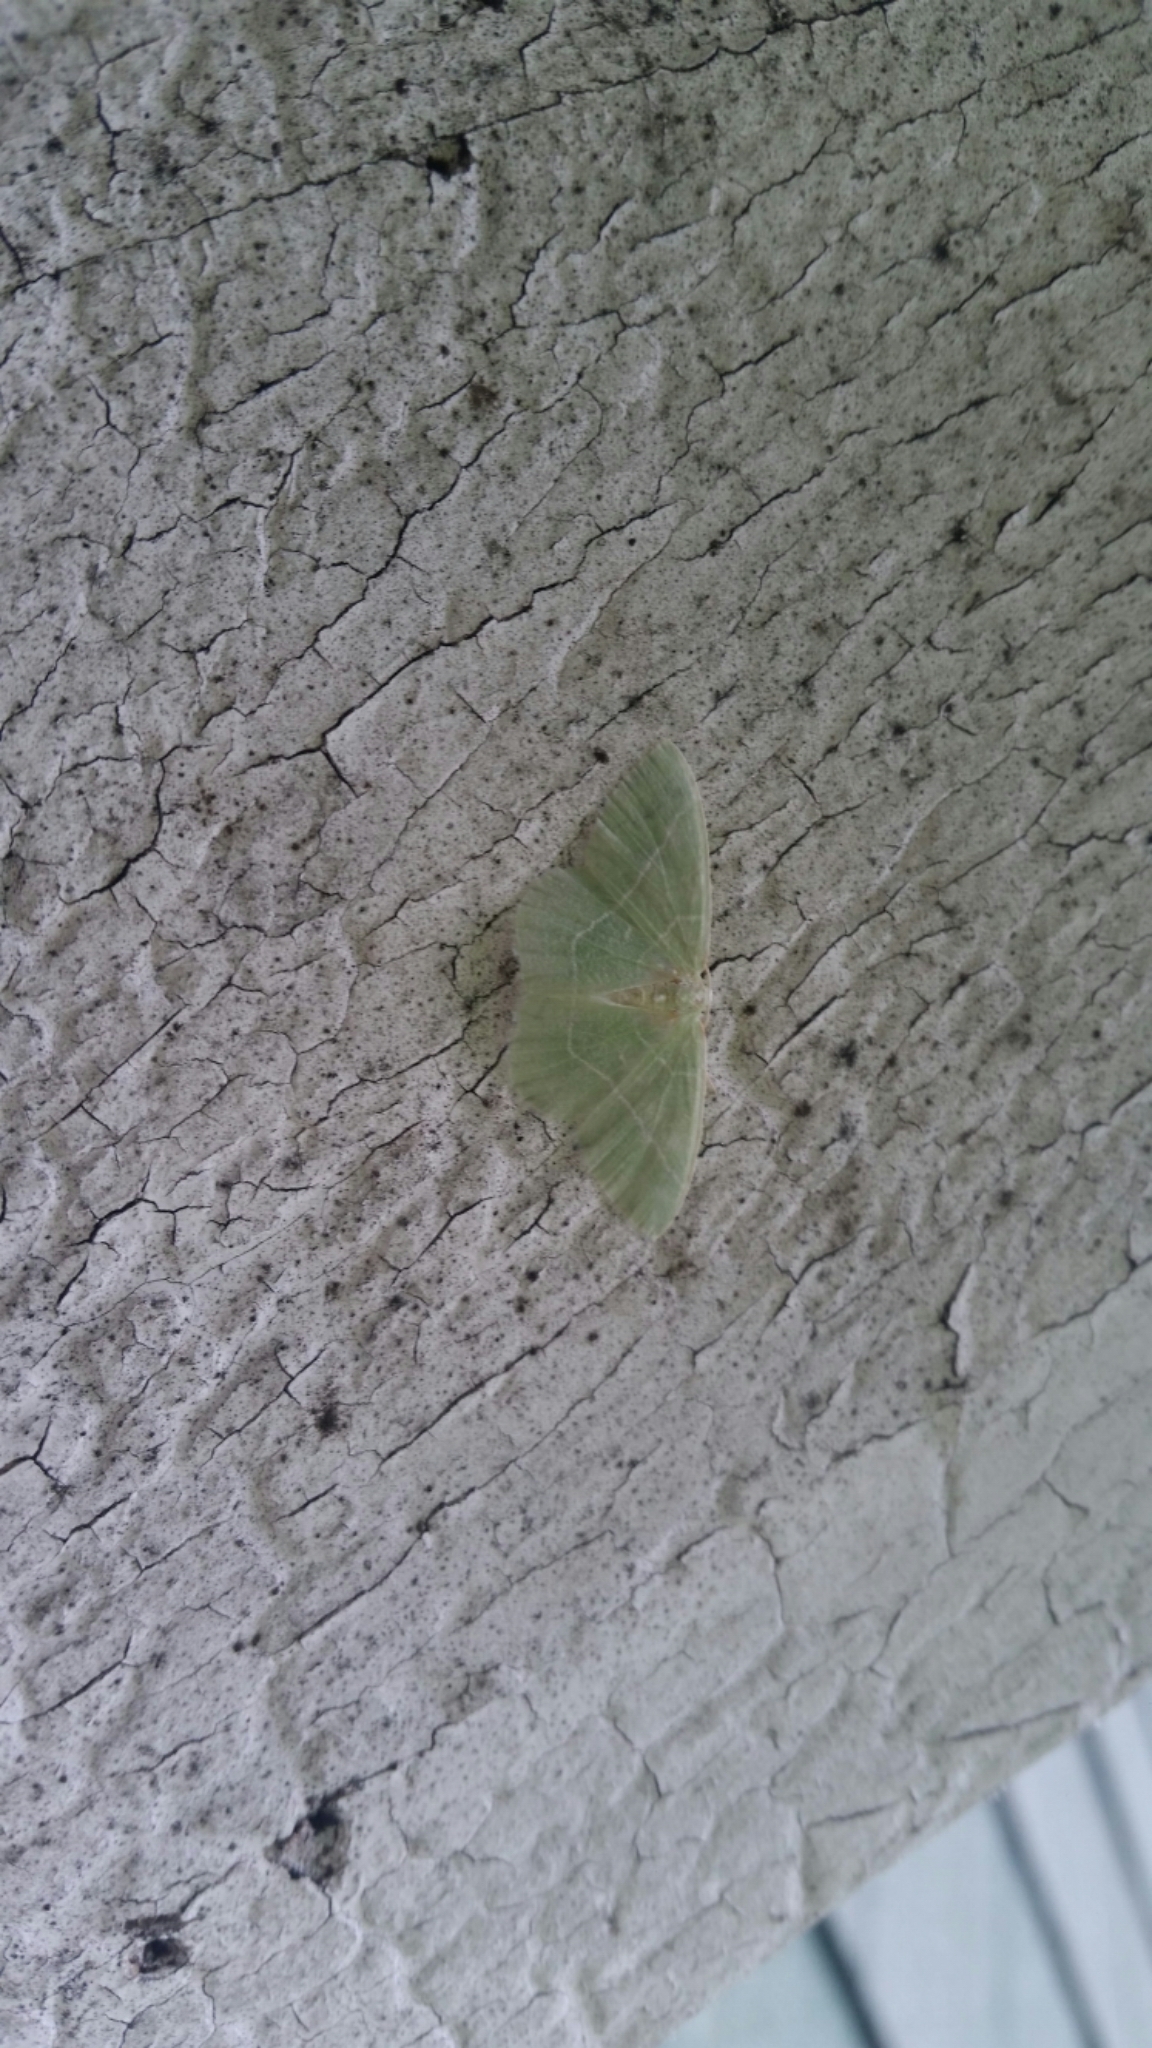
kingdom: Animalia
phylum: Arthropoda
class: Insecta
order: Lepidoptera
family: Geometridae
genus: Nemoria
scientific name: Nemoria mimosaria
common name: White-fringed emerald
